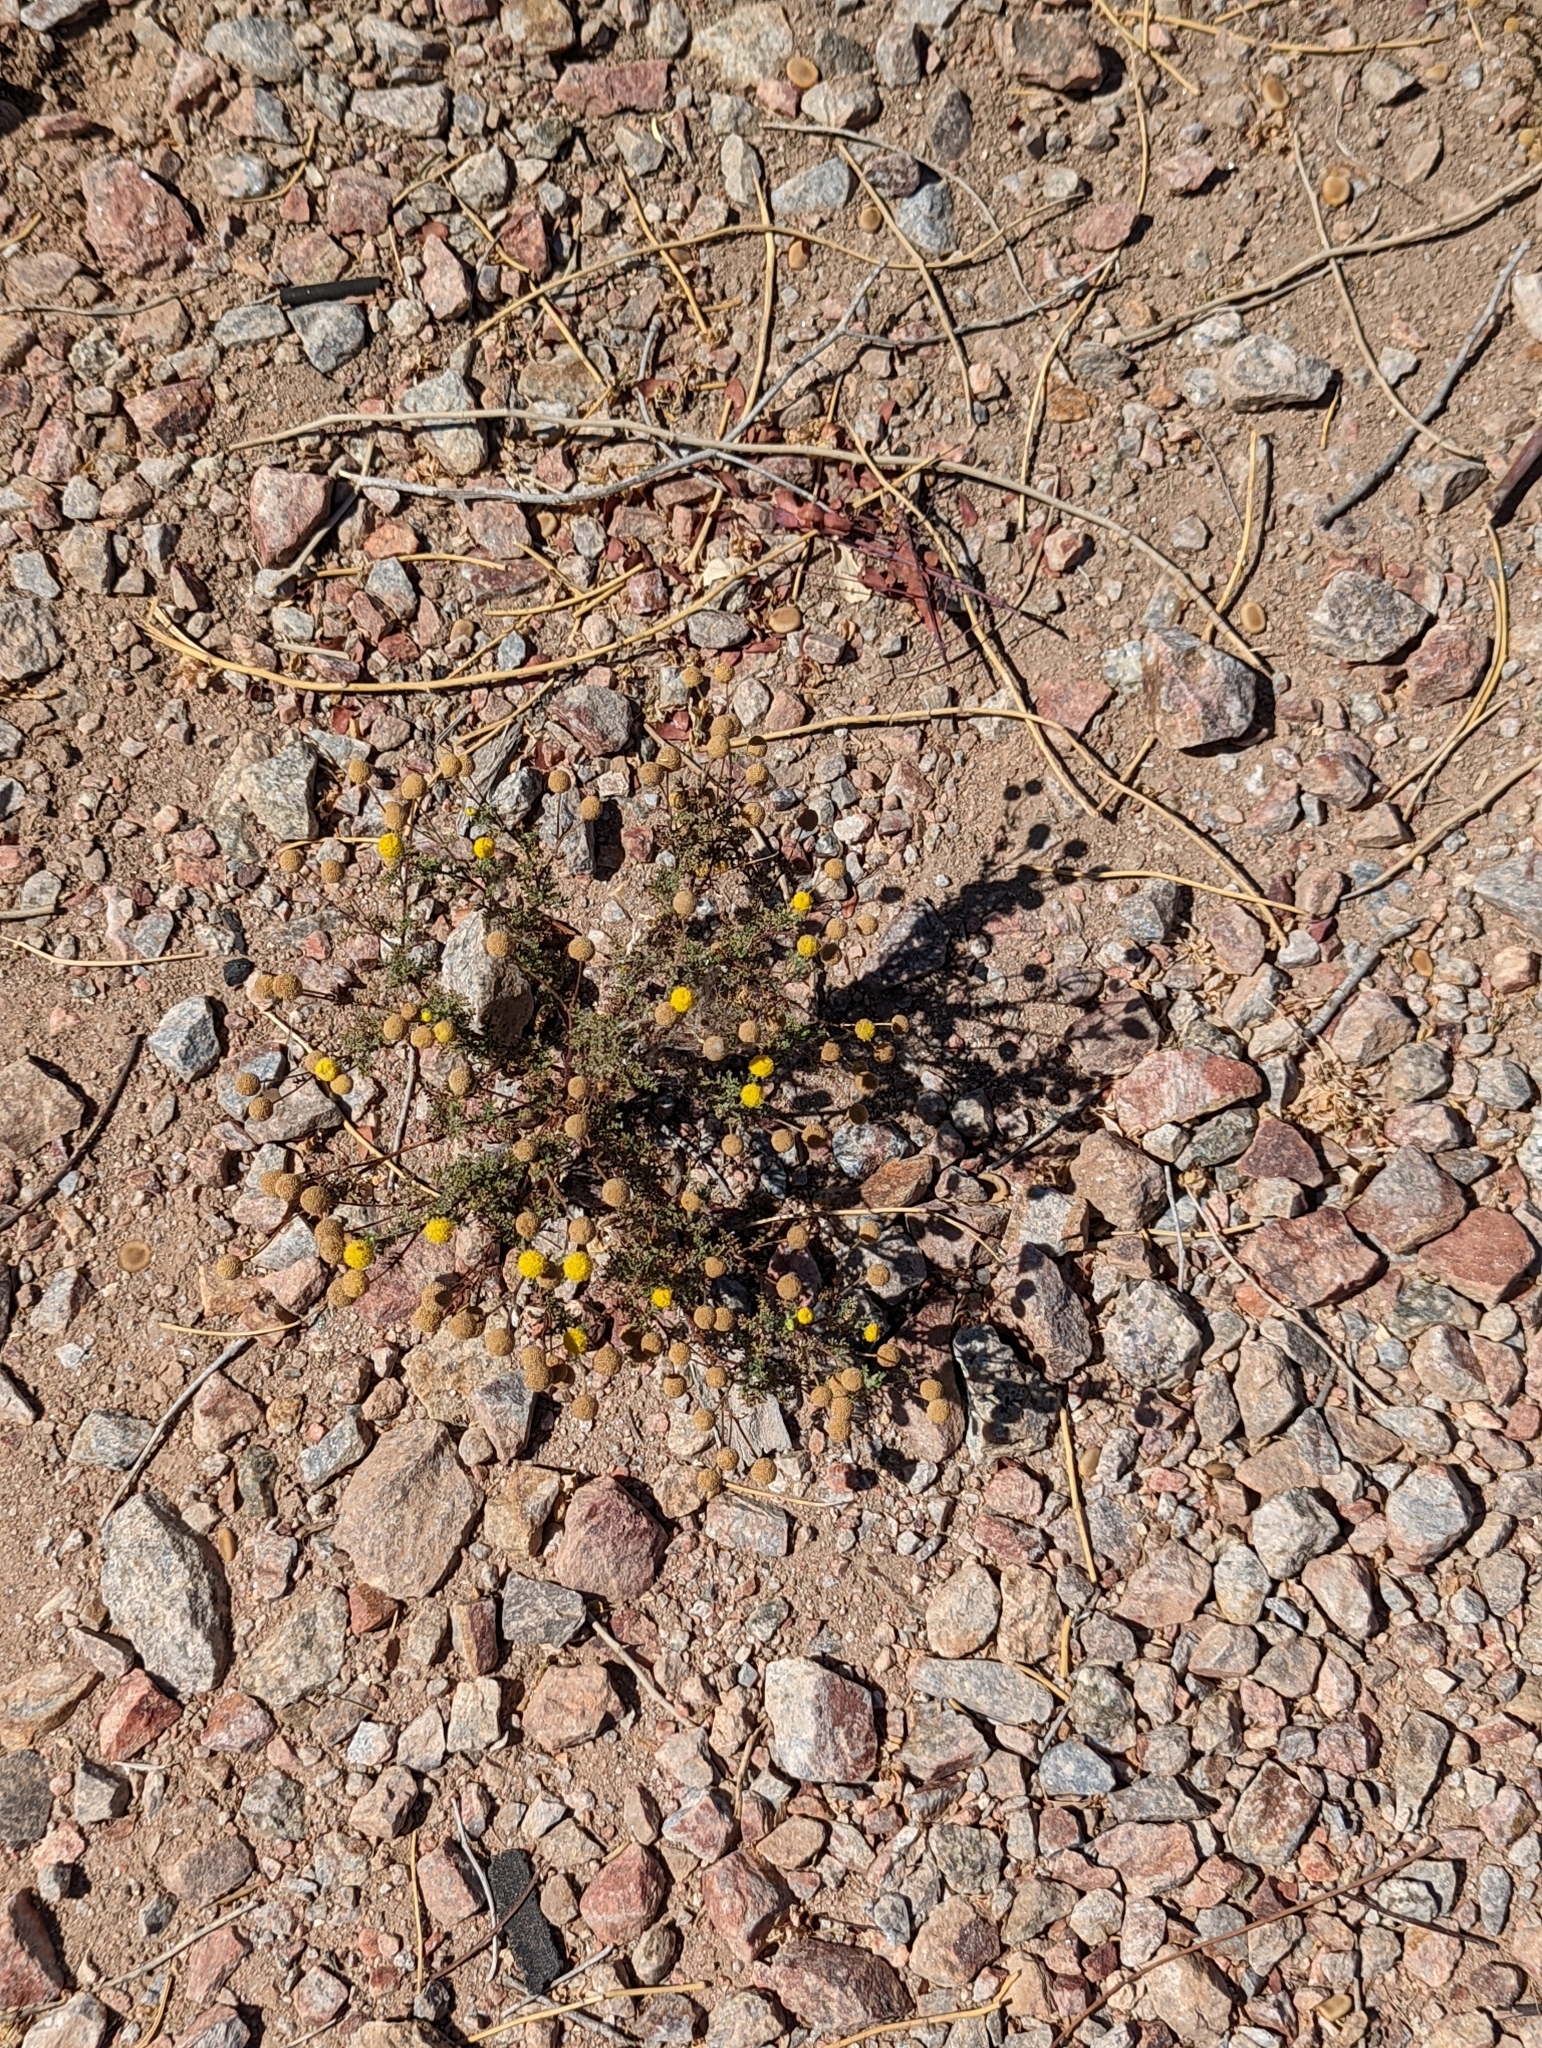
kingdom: Plantae
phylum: Tracheophyta
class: Magnoliopsida
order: Asterales
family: Asteraceae
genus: Oncosiphon
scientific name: Oncosiphon pilulifer
